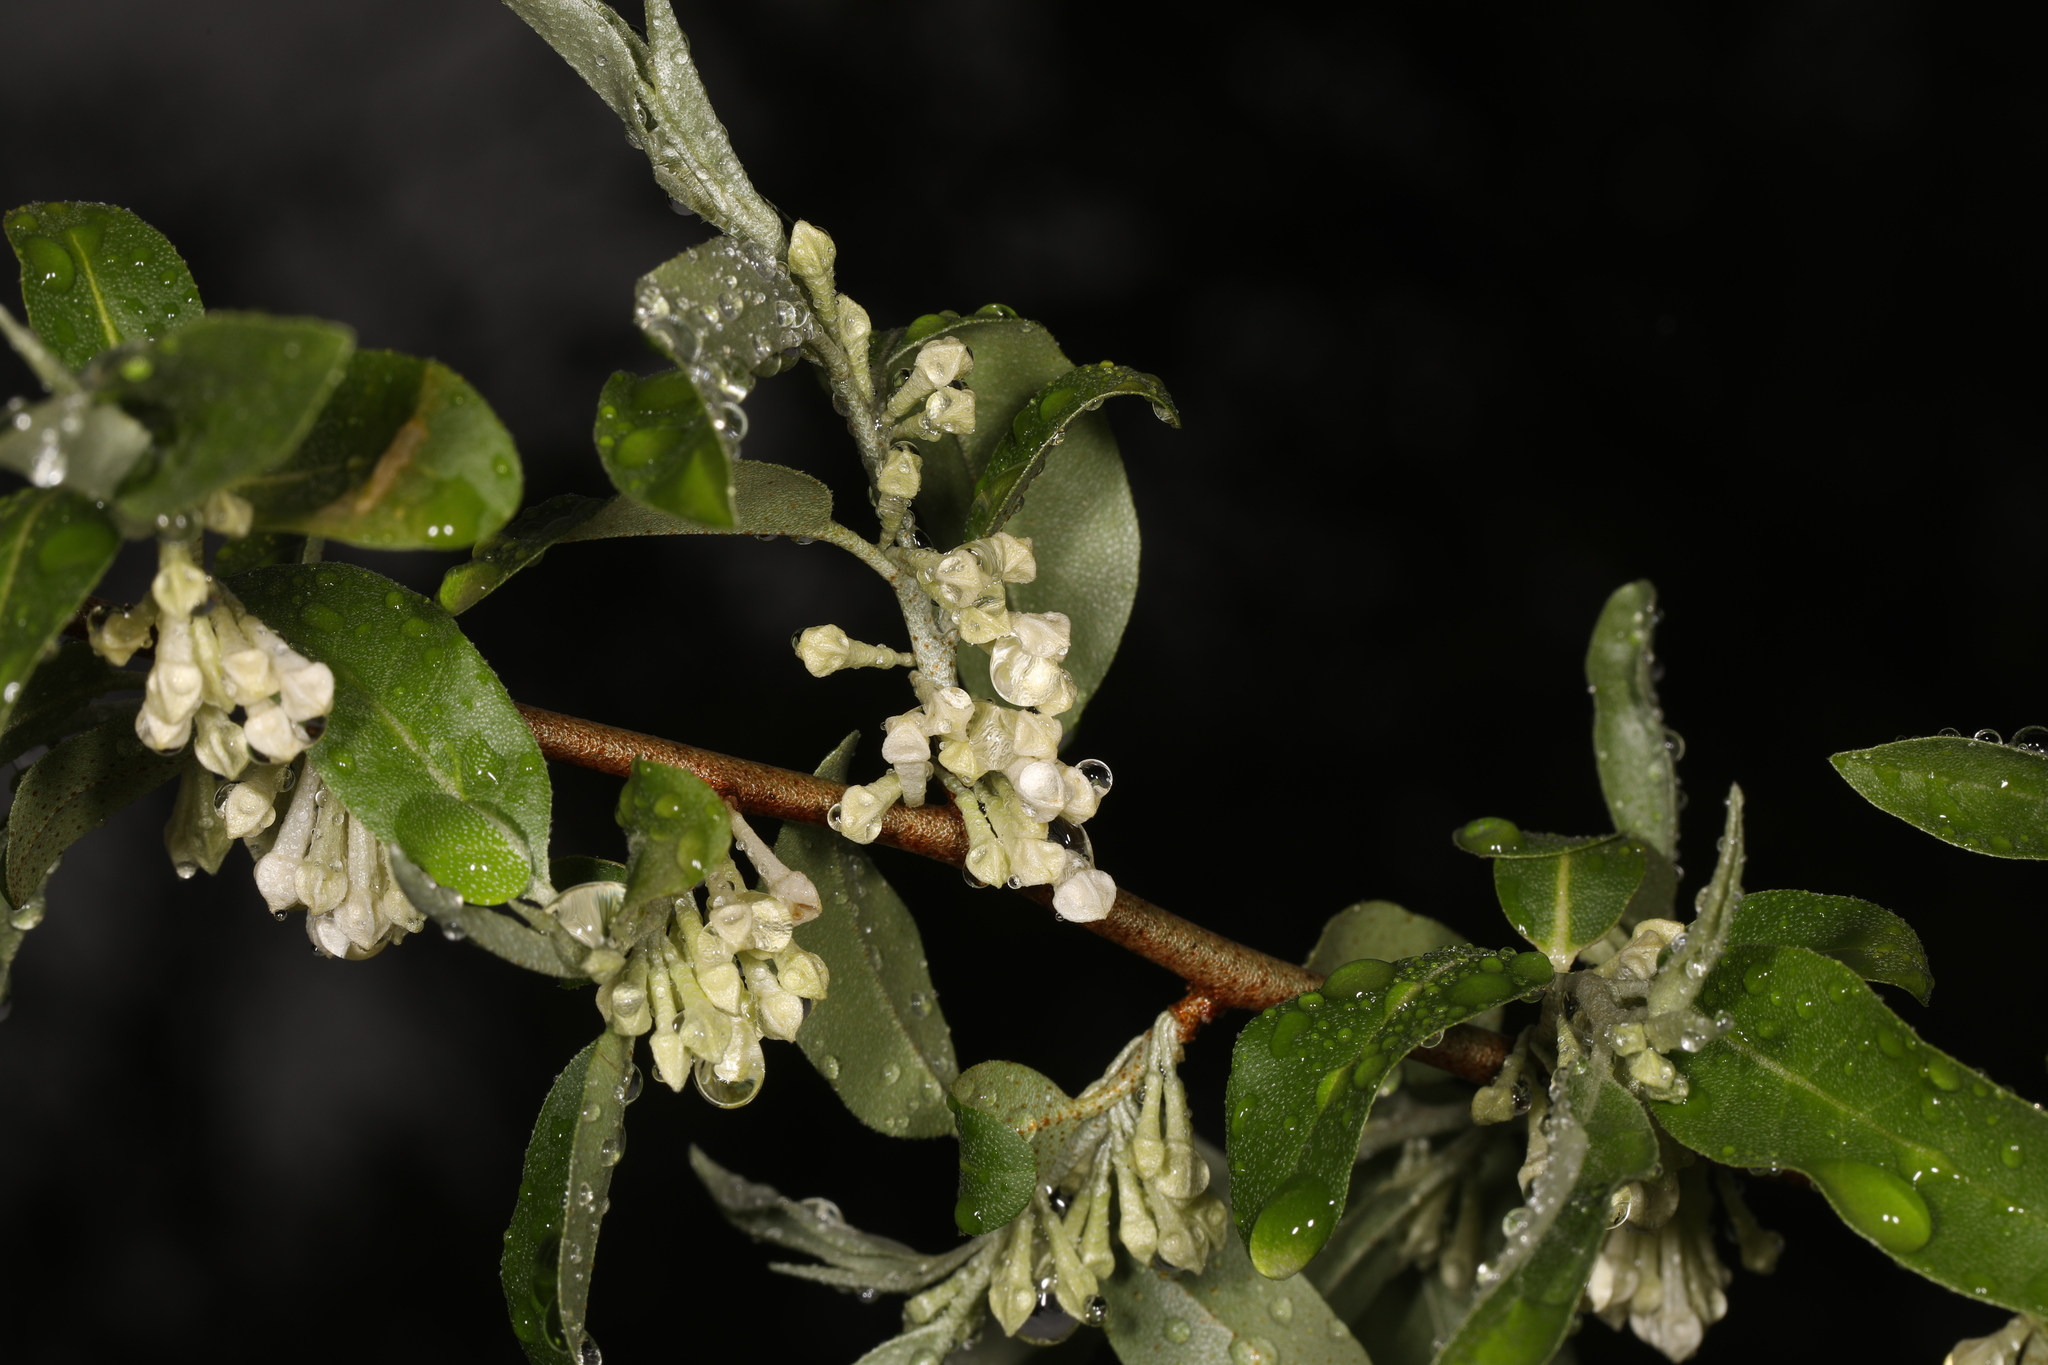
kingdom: Plantae
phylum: Tracheophyta
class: Magnoliopsida
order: Rosales
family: Elaeagnaceae
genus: Elaeagnus
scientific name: Elaeagnus umbellata
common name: Autumn olive
